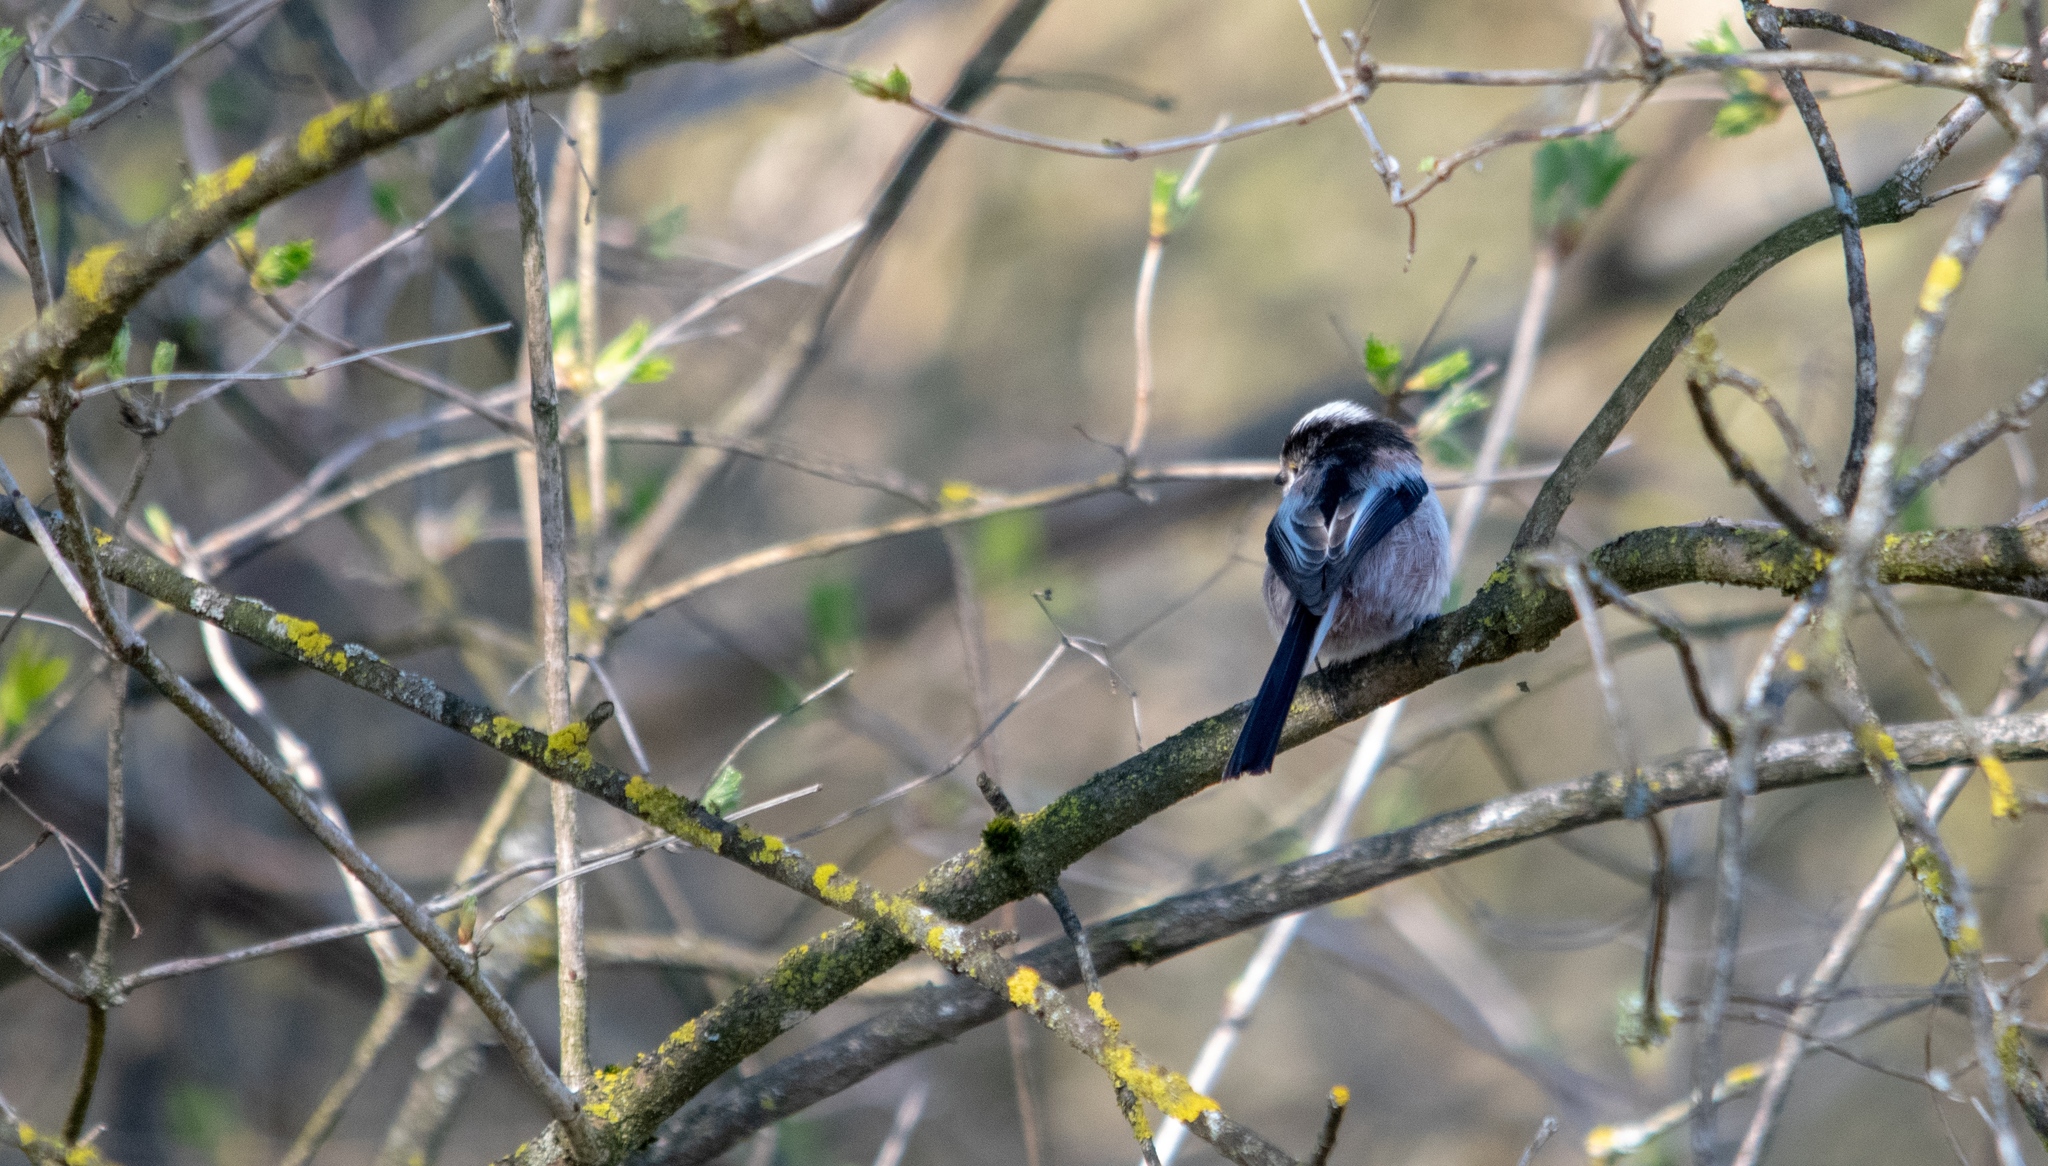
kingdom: Animalia
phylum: Chordata
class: Aves
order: Passeriformes
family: Aegithalidae
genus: Aegithalos
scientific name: Aegithalos caudatus
